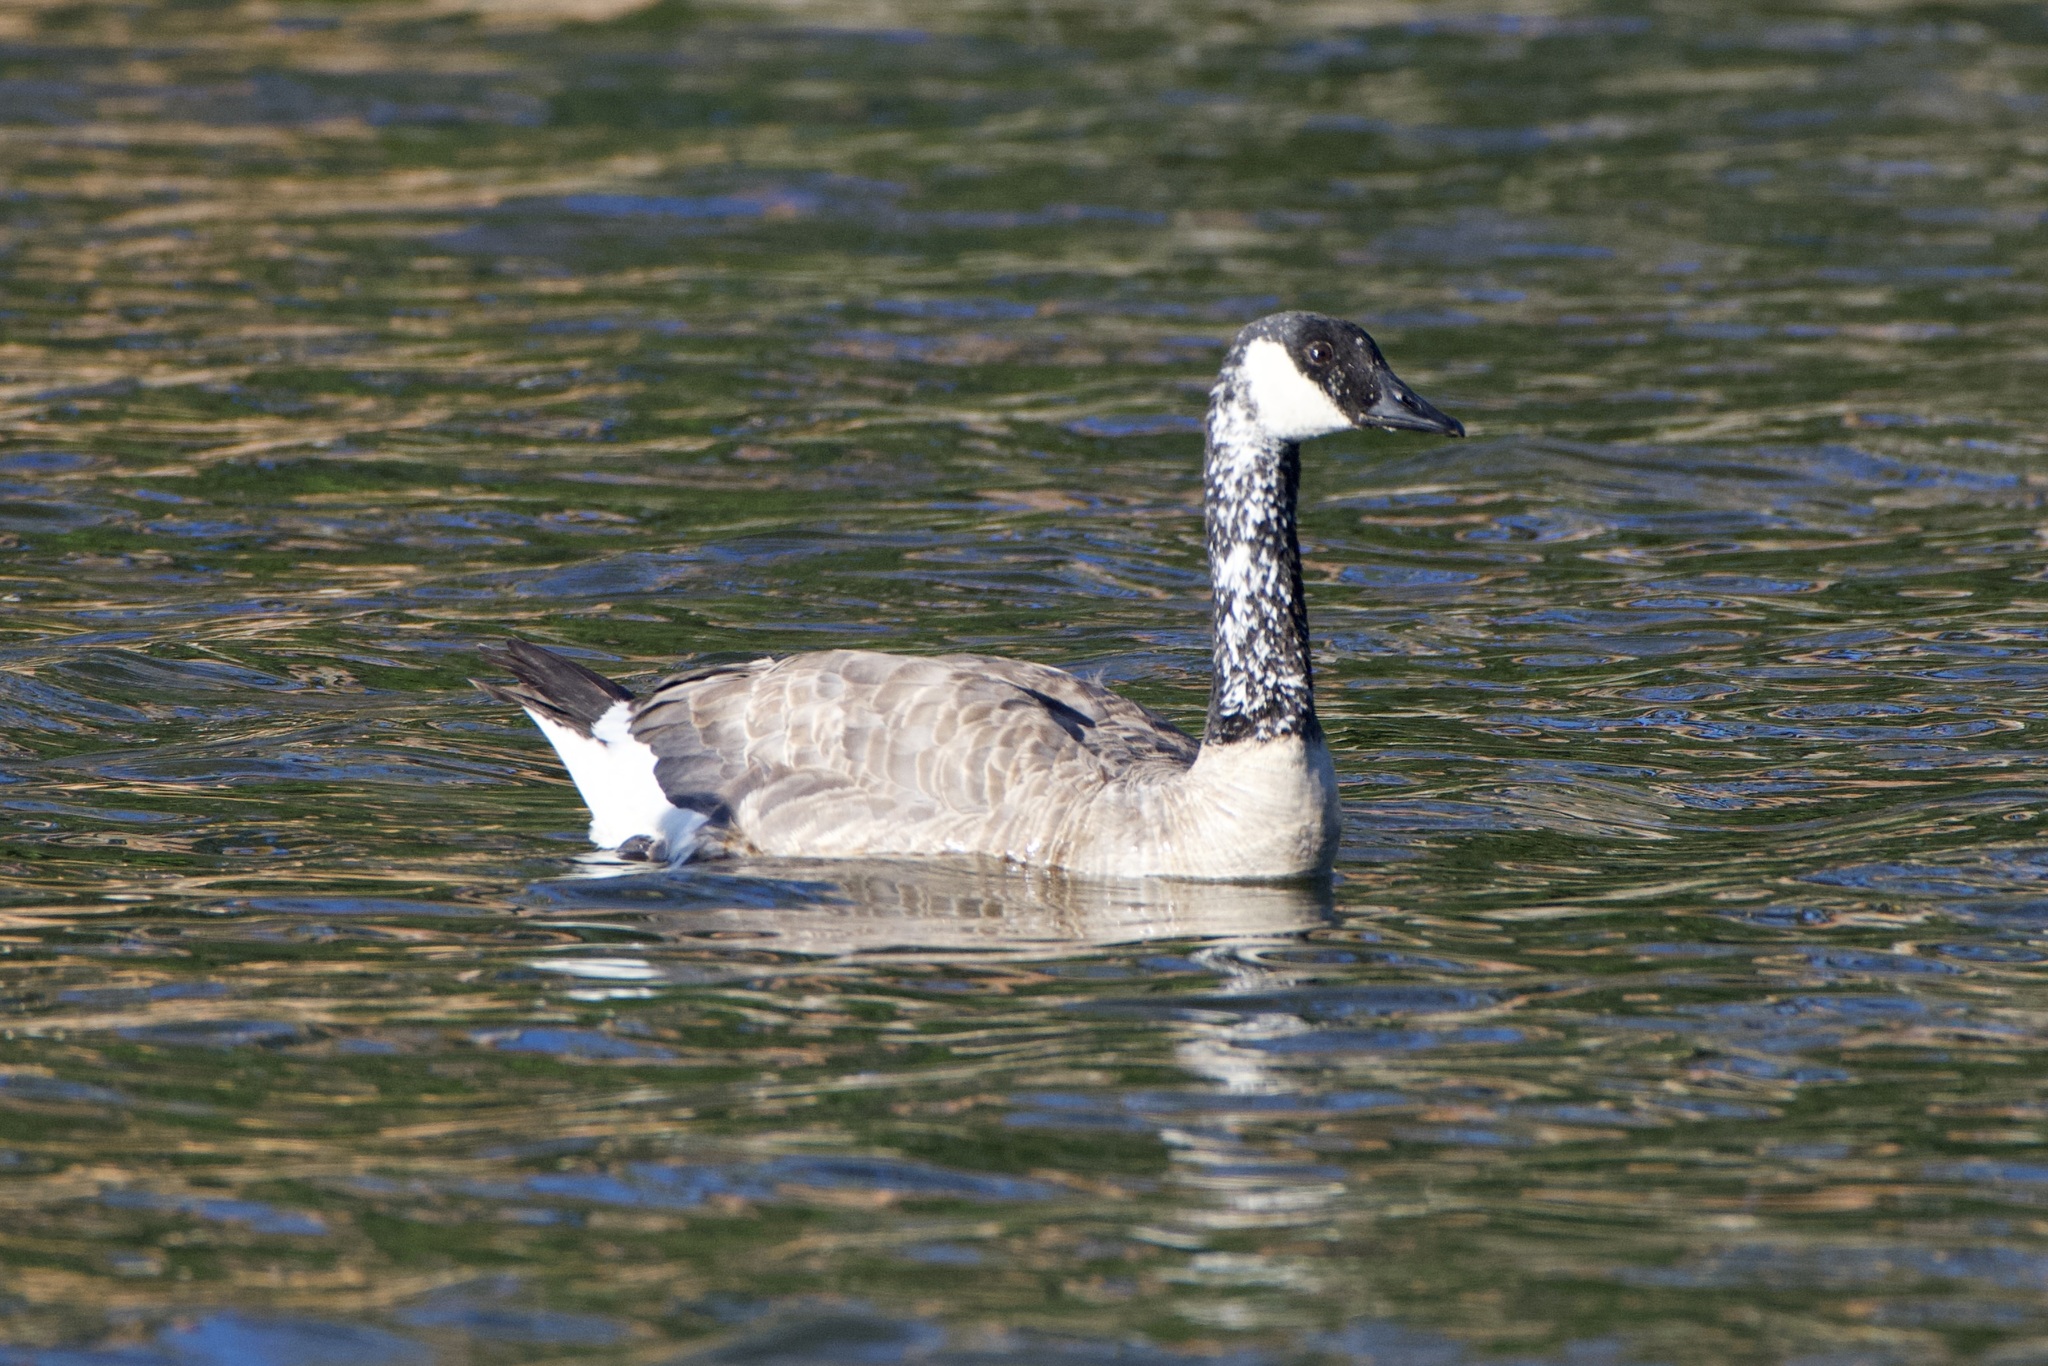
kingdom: Animalia
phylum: Chordata
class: Aves
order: Anseriformes
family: Anatidae
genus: Branta
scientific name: Branta canadensis
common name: Canada goose
